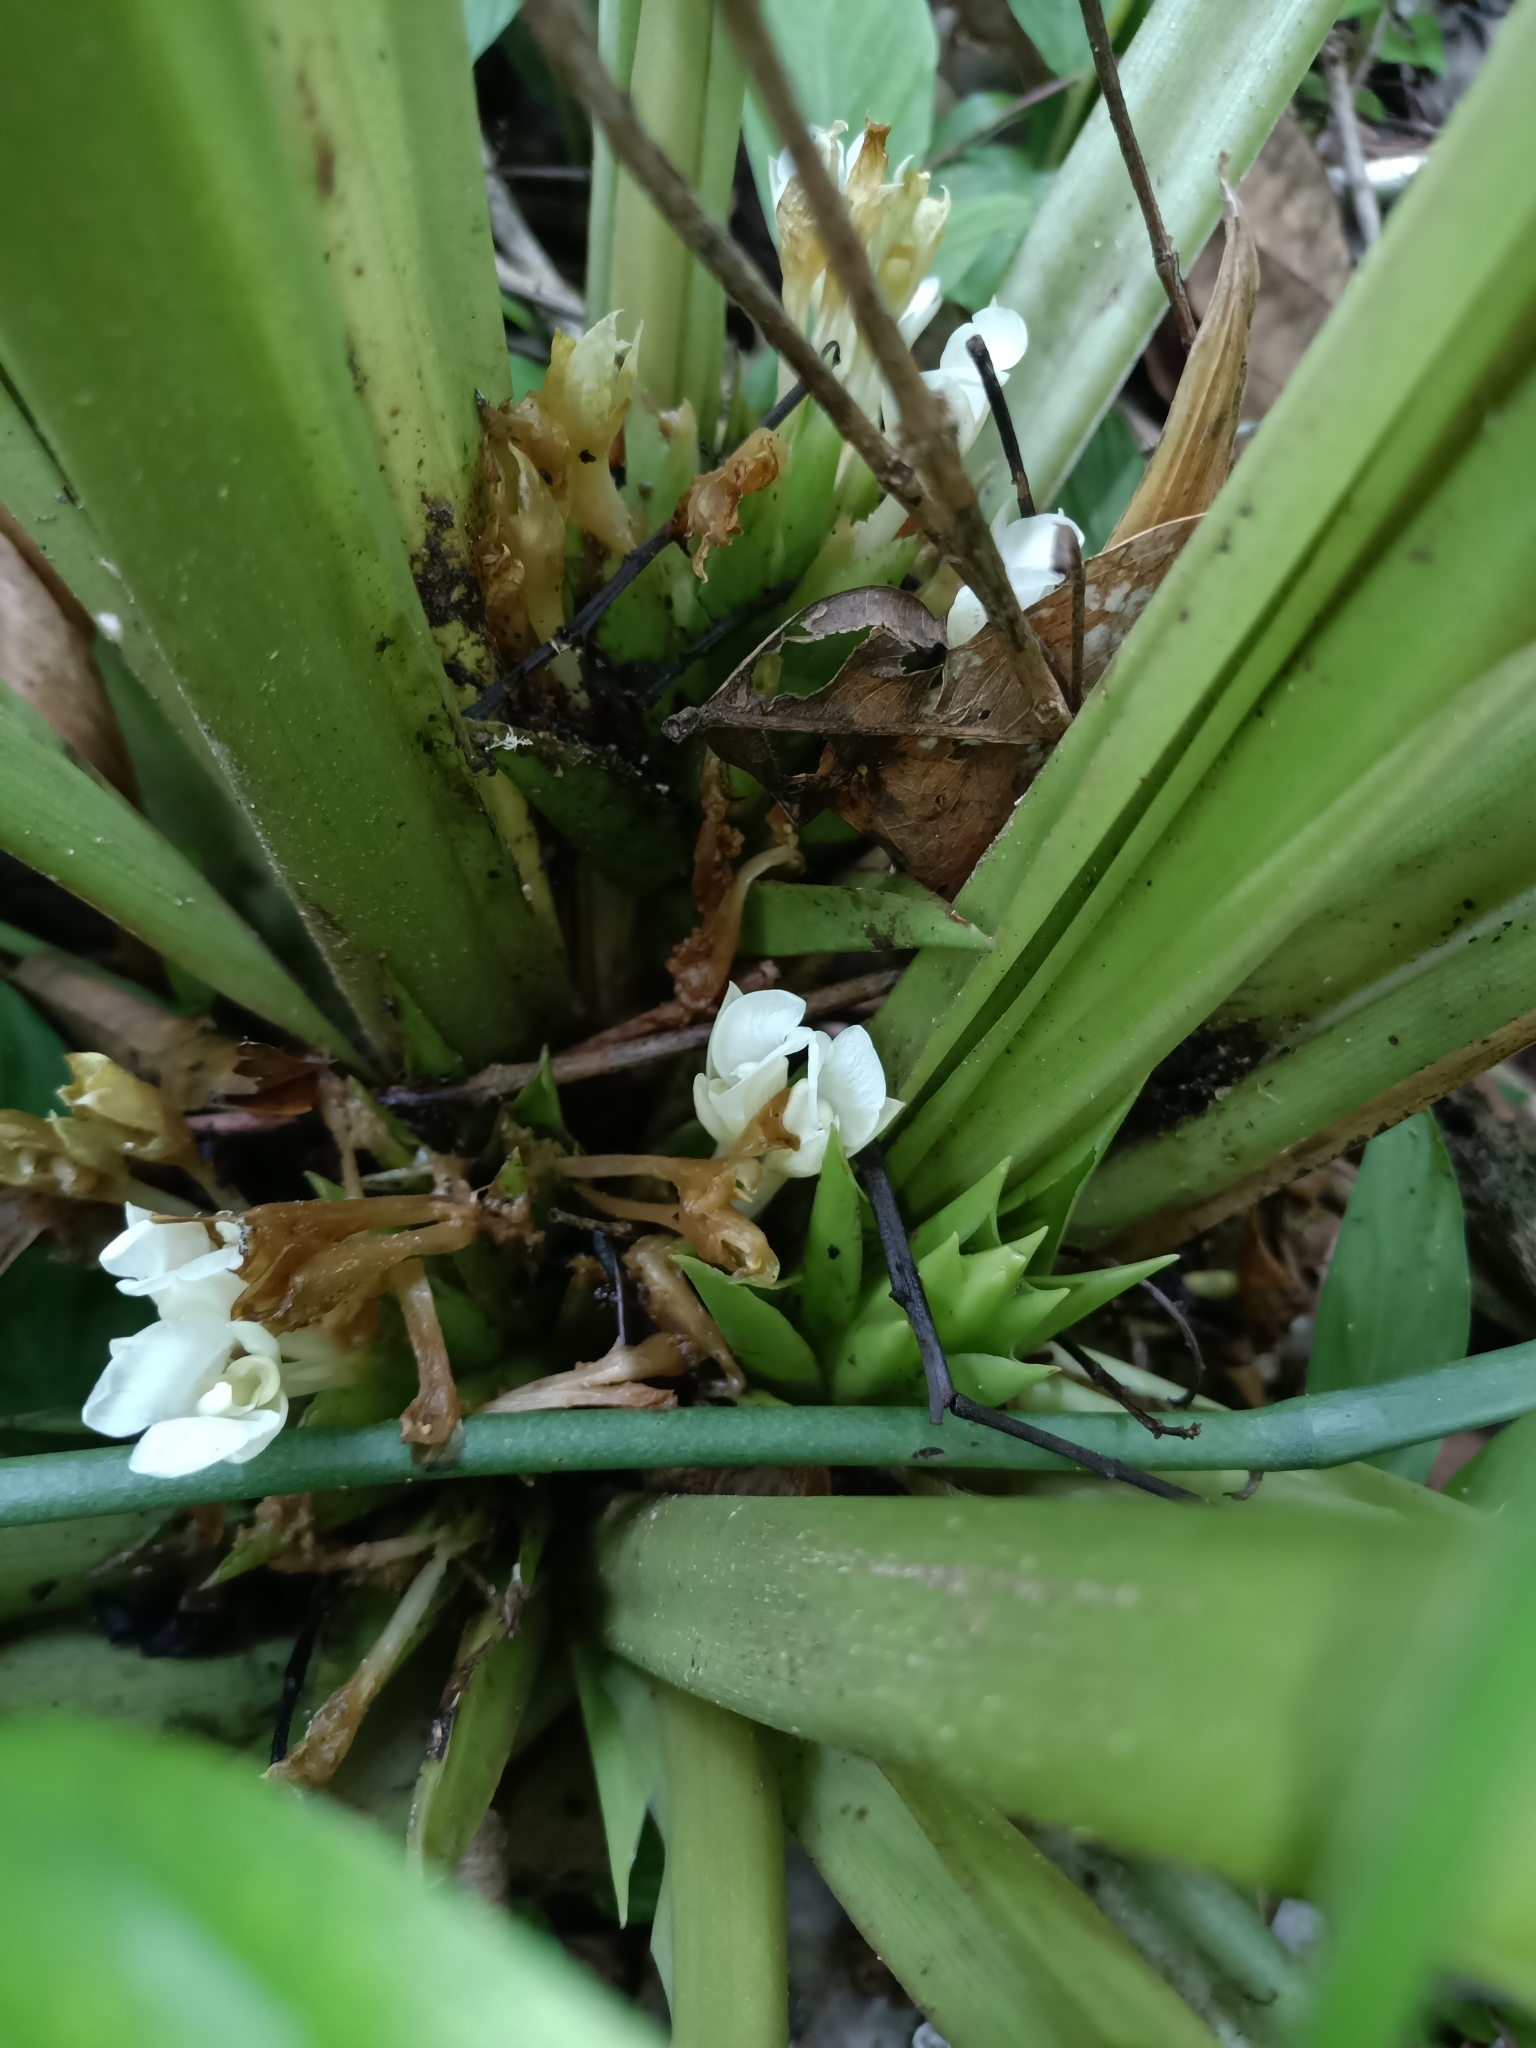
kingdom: Plantae
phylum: Tracheophyta
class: Liliopsida
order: Zingiberales
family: Marantaceae
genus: Goeppertia
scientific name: Goeppertia propinqua
